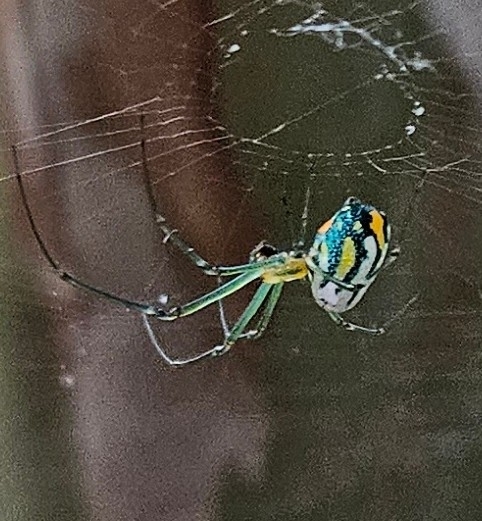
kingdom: Animalia
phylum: Arthropoda
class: Arachnida
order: Araneae
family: Tetragnathidae
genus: Leucauge
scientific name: Leucauge argyrobapta
